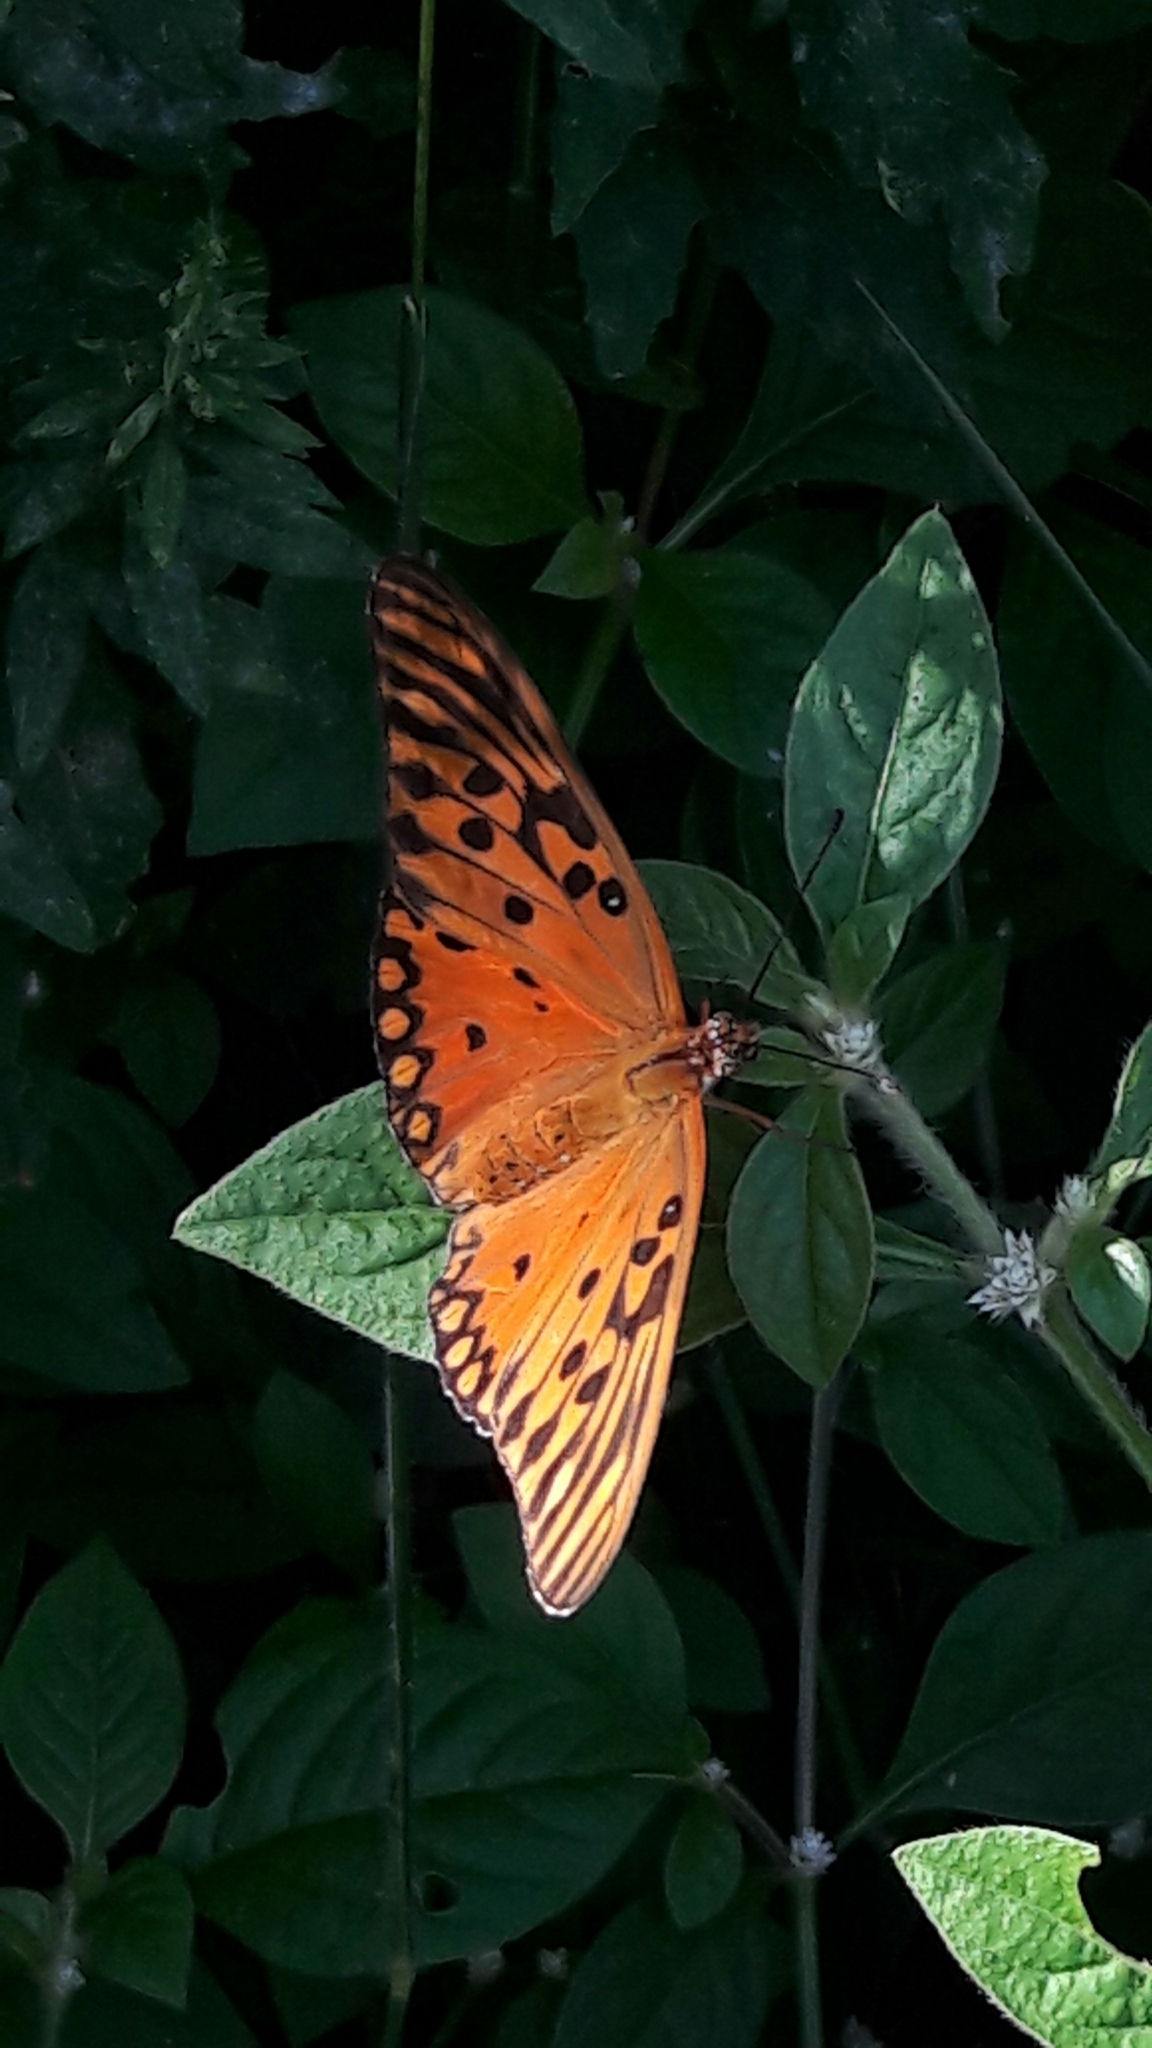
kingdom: Animalia
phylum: Arthropoda
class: Insecta
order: Lepidoptera
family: Nymphalidae
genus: Dione
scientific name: Dione vanillae
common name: Gulf fritillary
